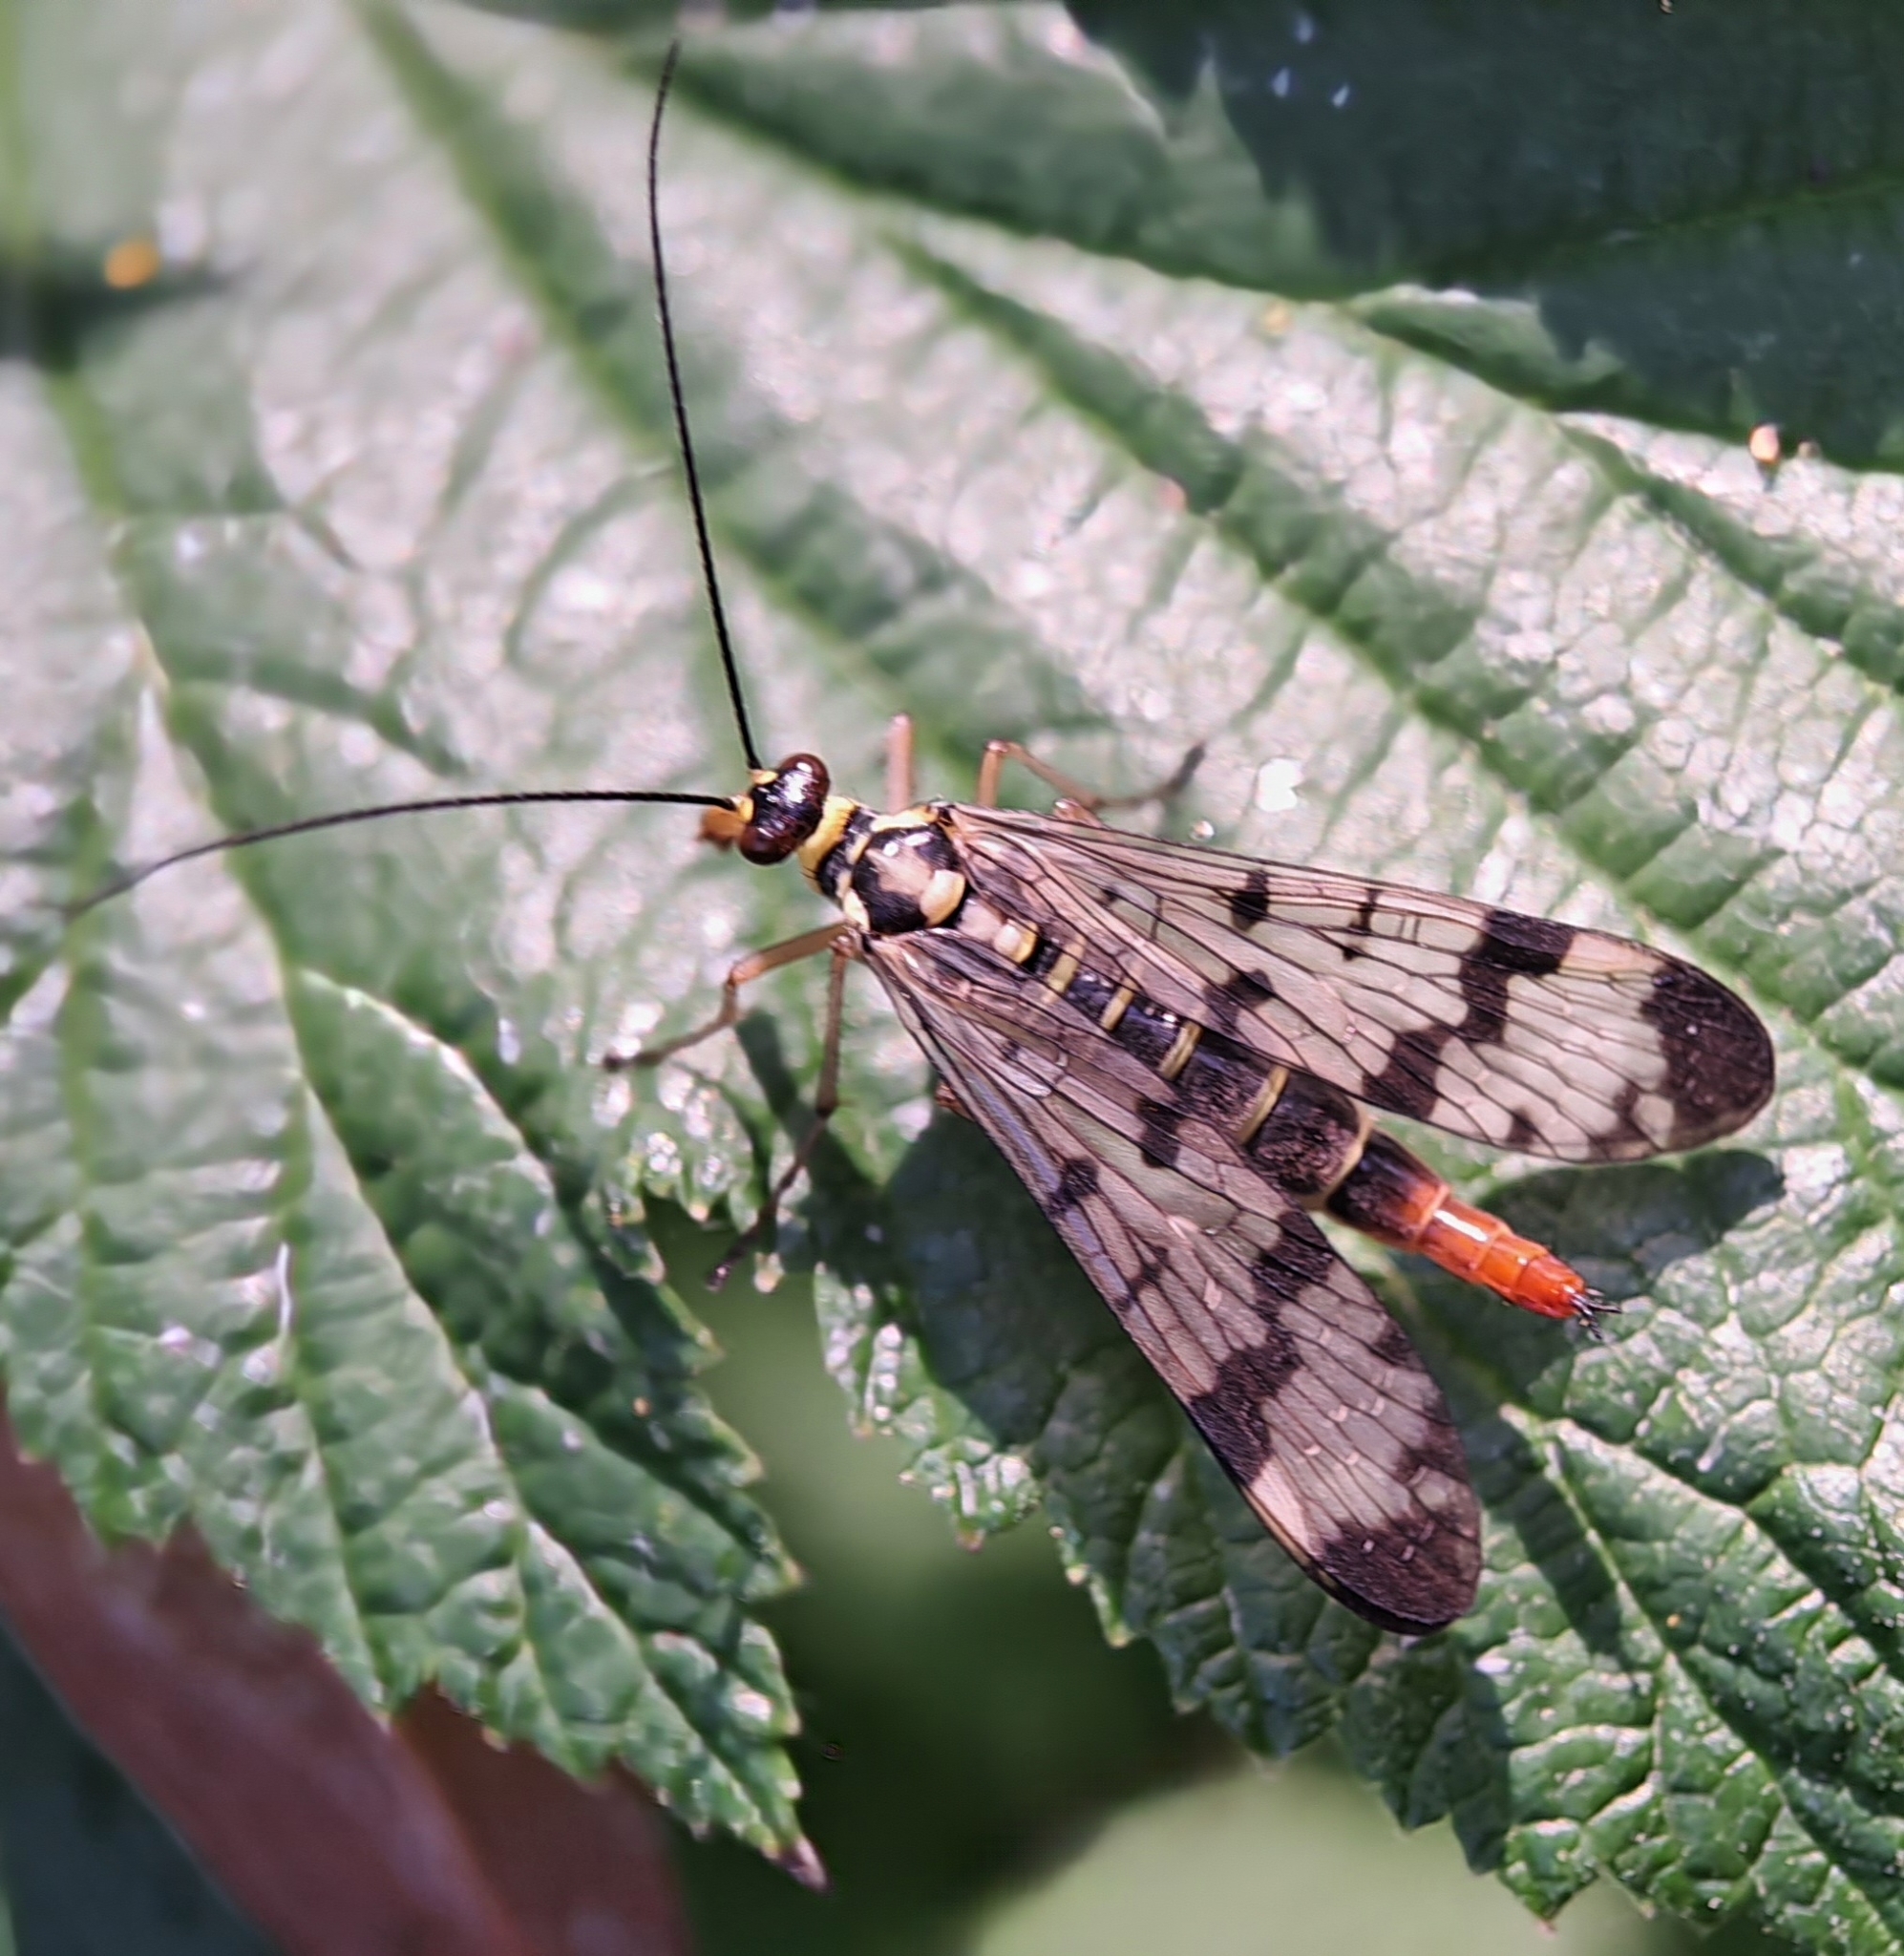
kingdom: Animalia
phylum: Arthropoda
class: Insecta
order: Mecoptera
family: Panorpidae
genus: Panorpa
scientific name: Panorpa communis
